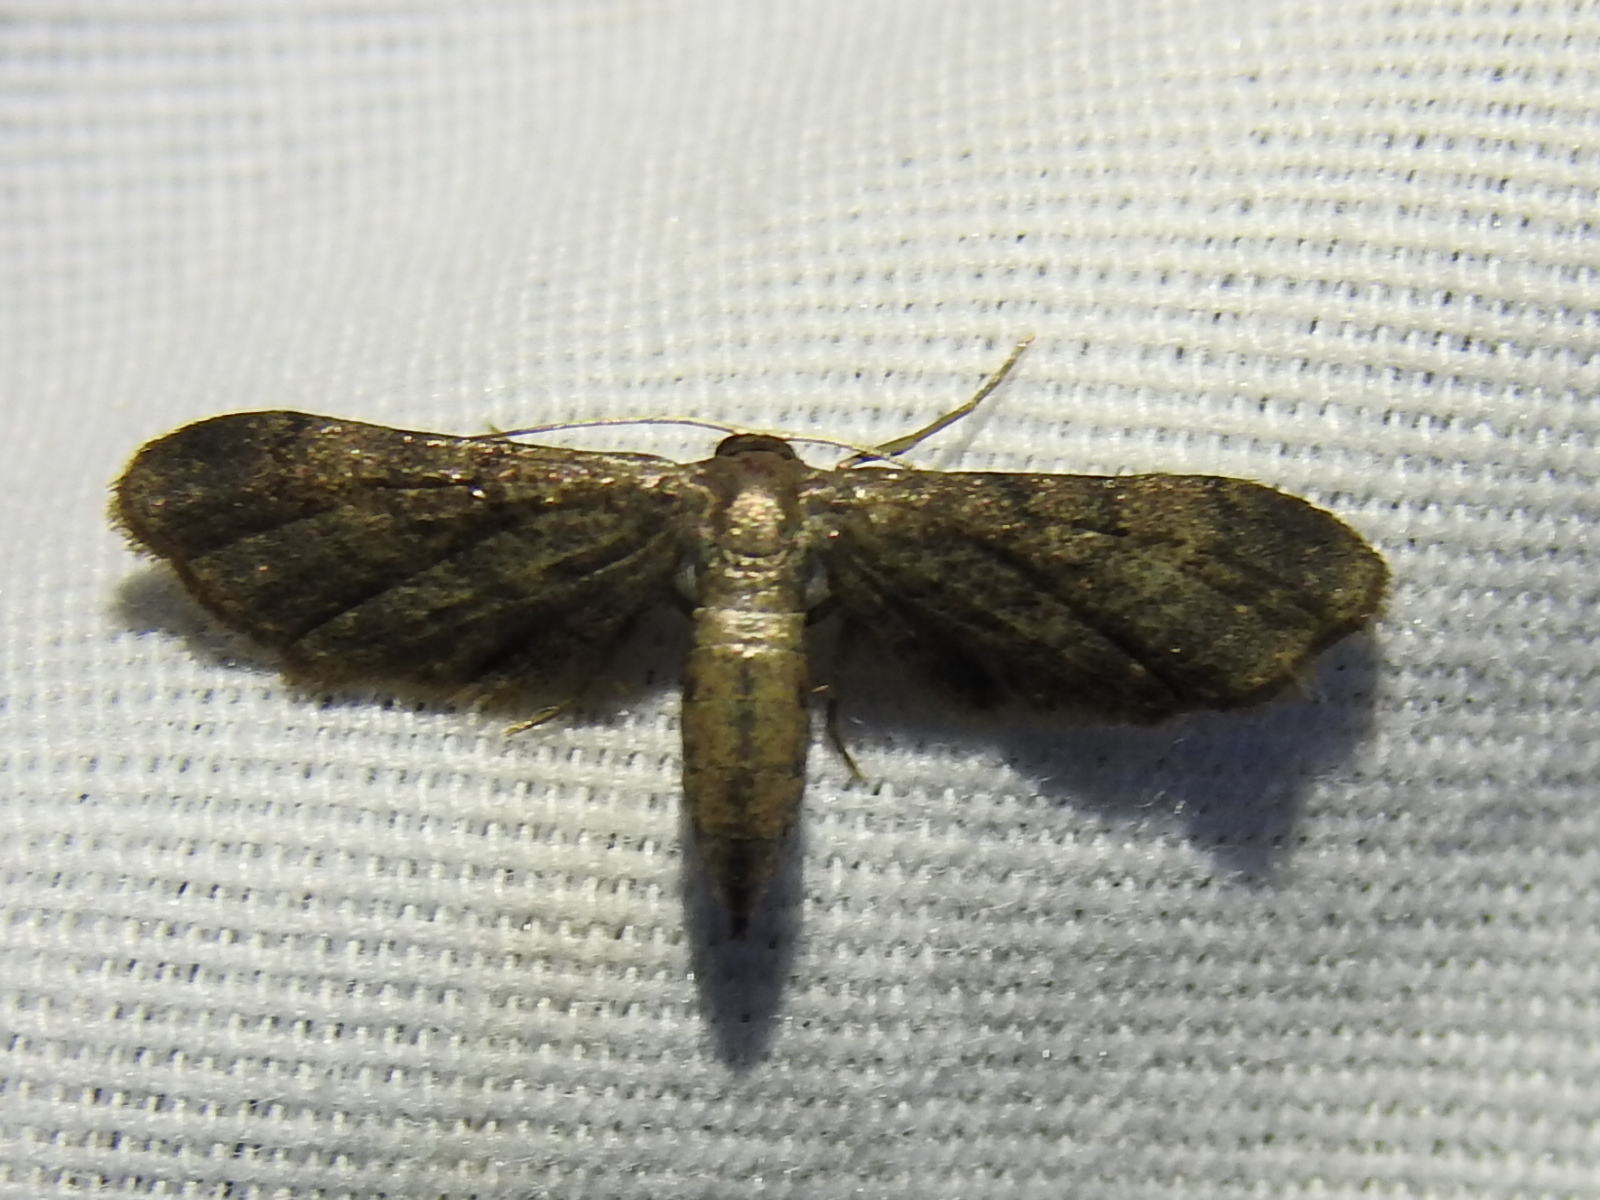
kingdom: Animalia
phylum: Arthropoda
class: Insecta
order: Lepidoptera
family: Geometridae
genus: Protoproutia
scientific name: Protoproutia laredoata
